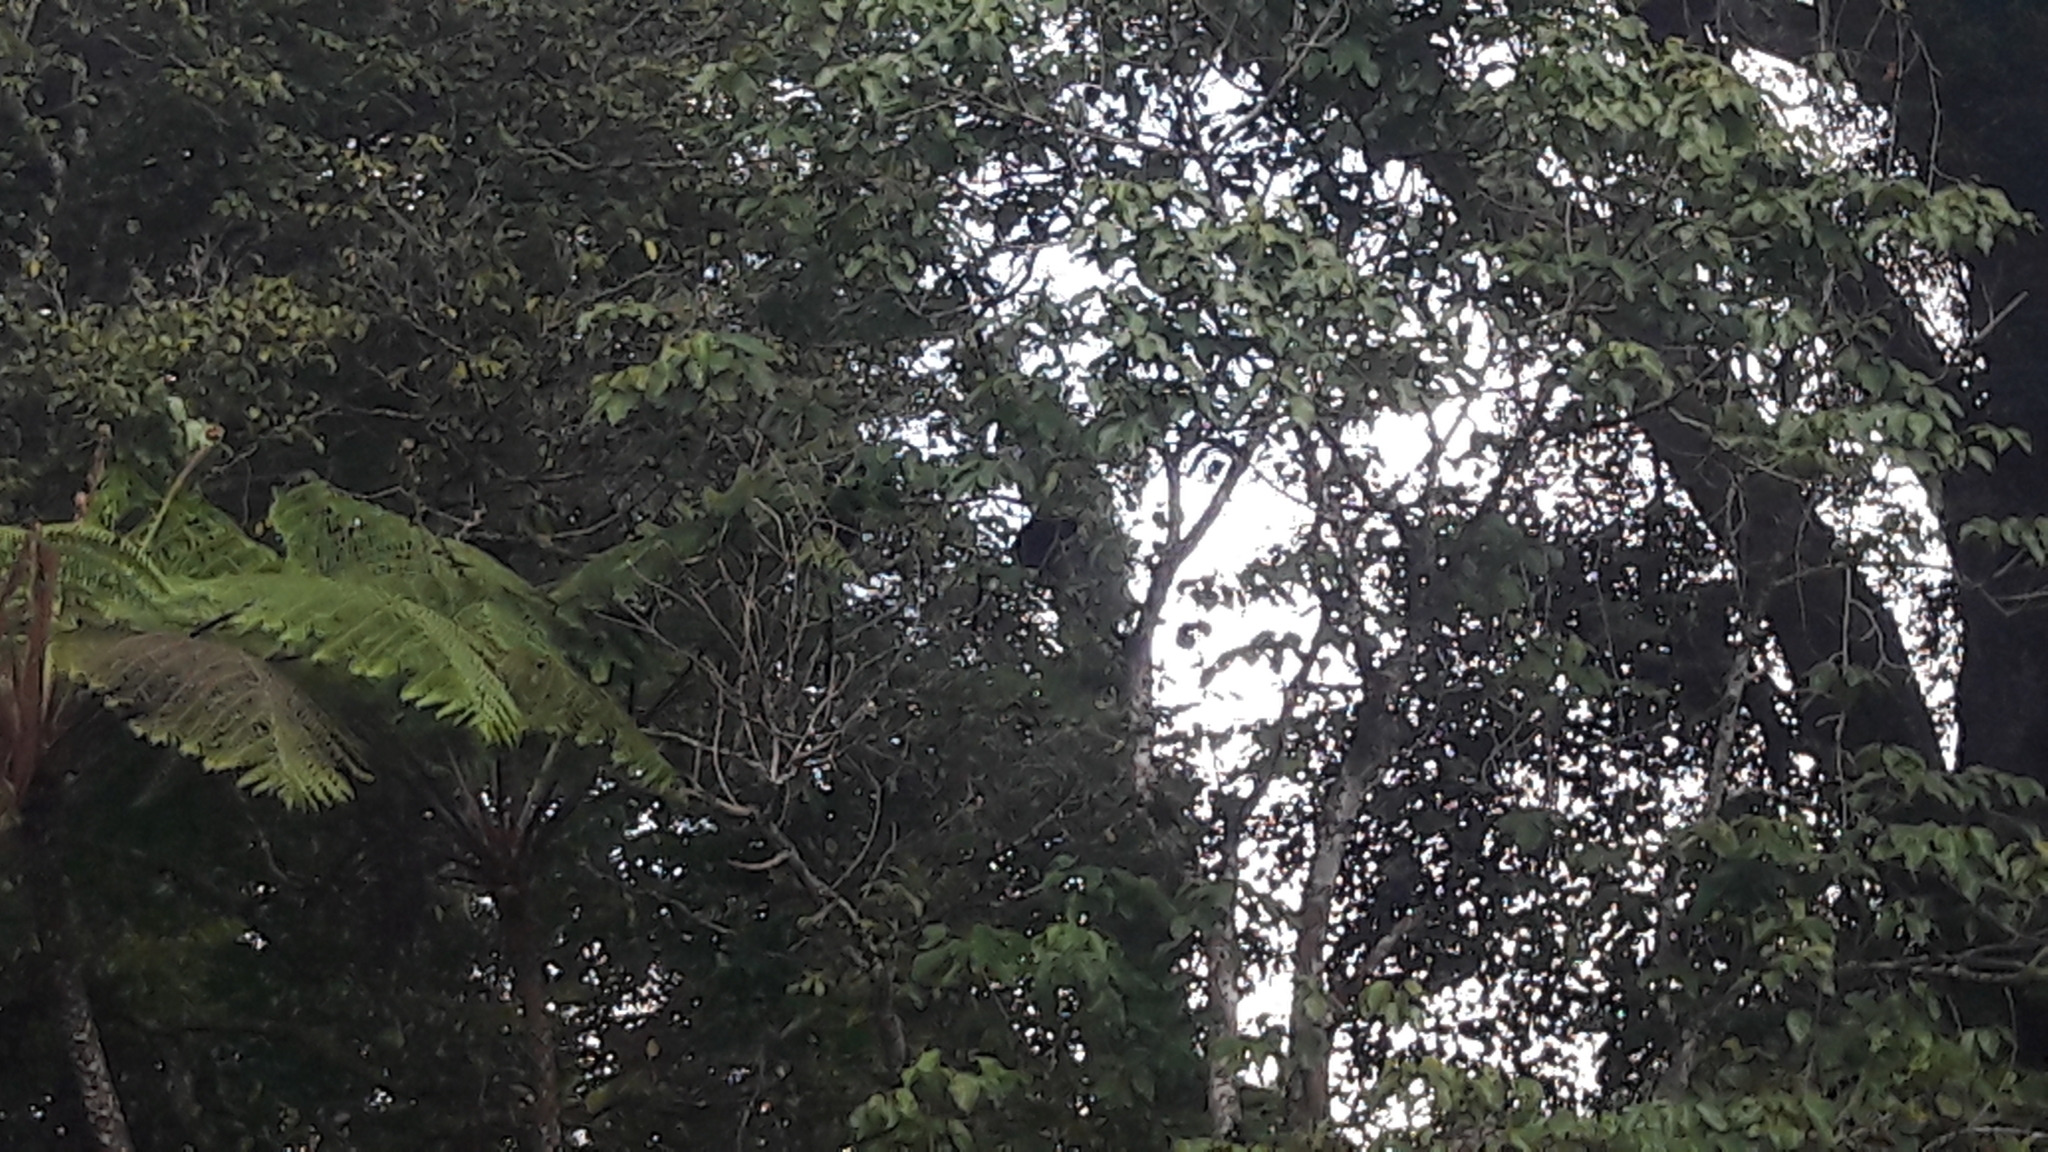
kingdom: Animalia
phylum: Chordata
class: Mammalia
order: Primates
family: Cercopithecidae
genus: Trachypithecus
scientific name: Trachypithecus auratus
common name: Javan lutung
